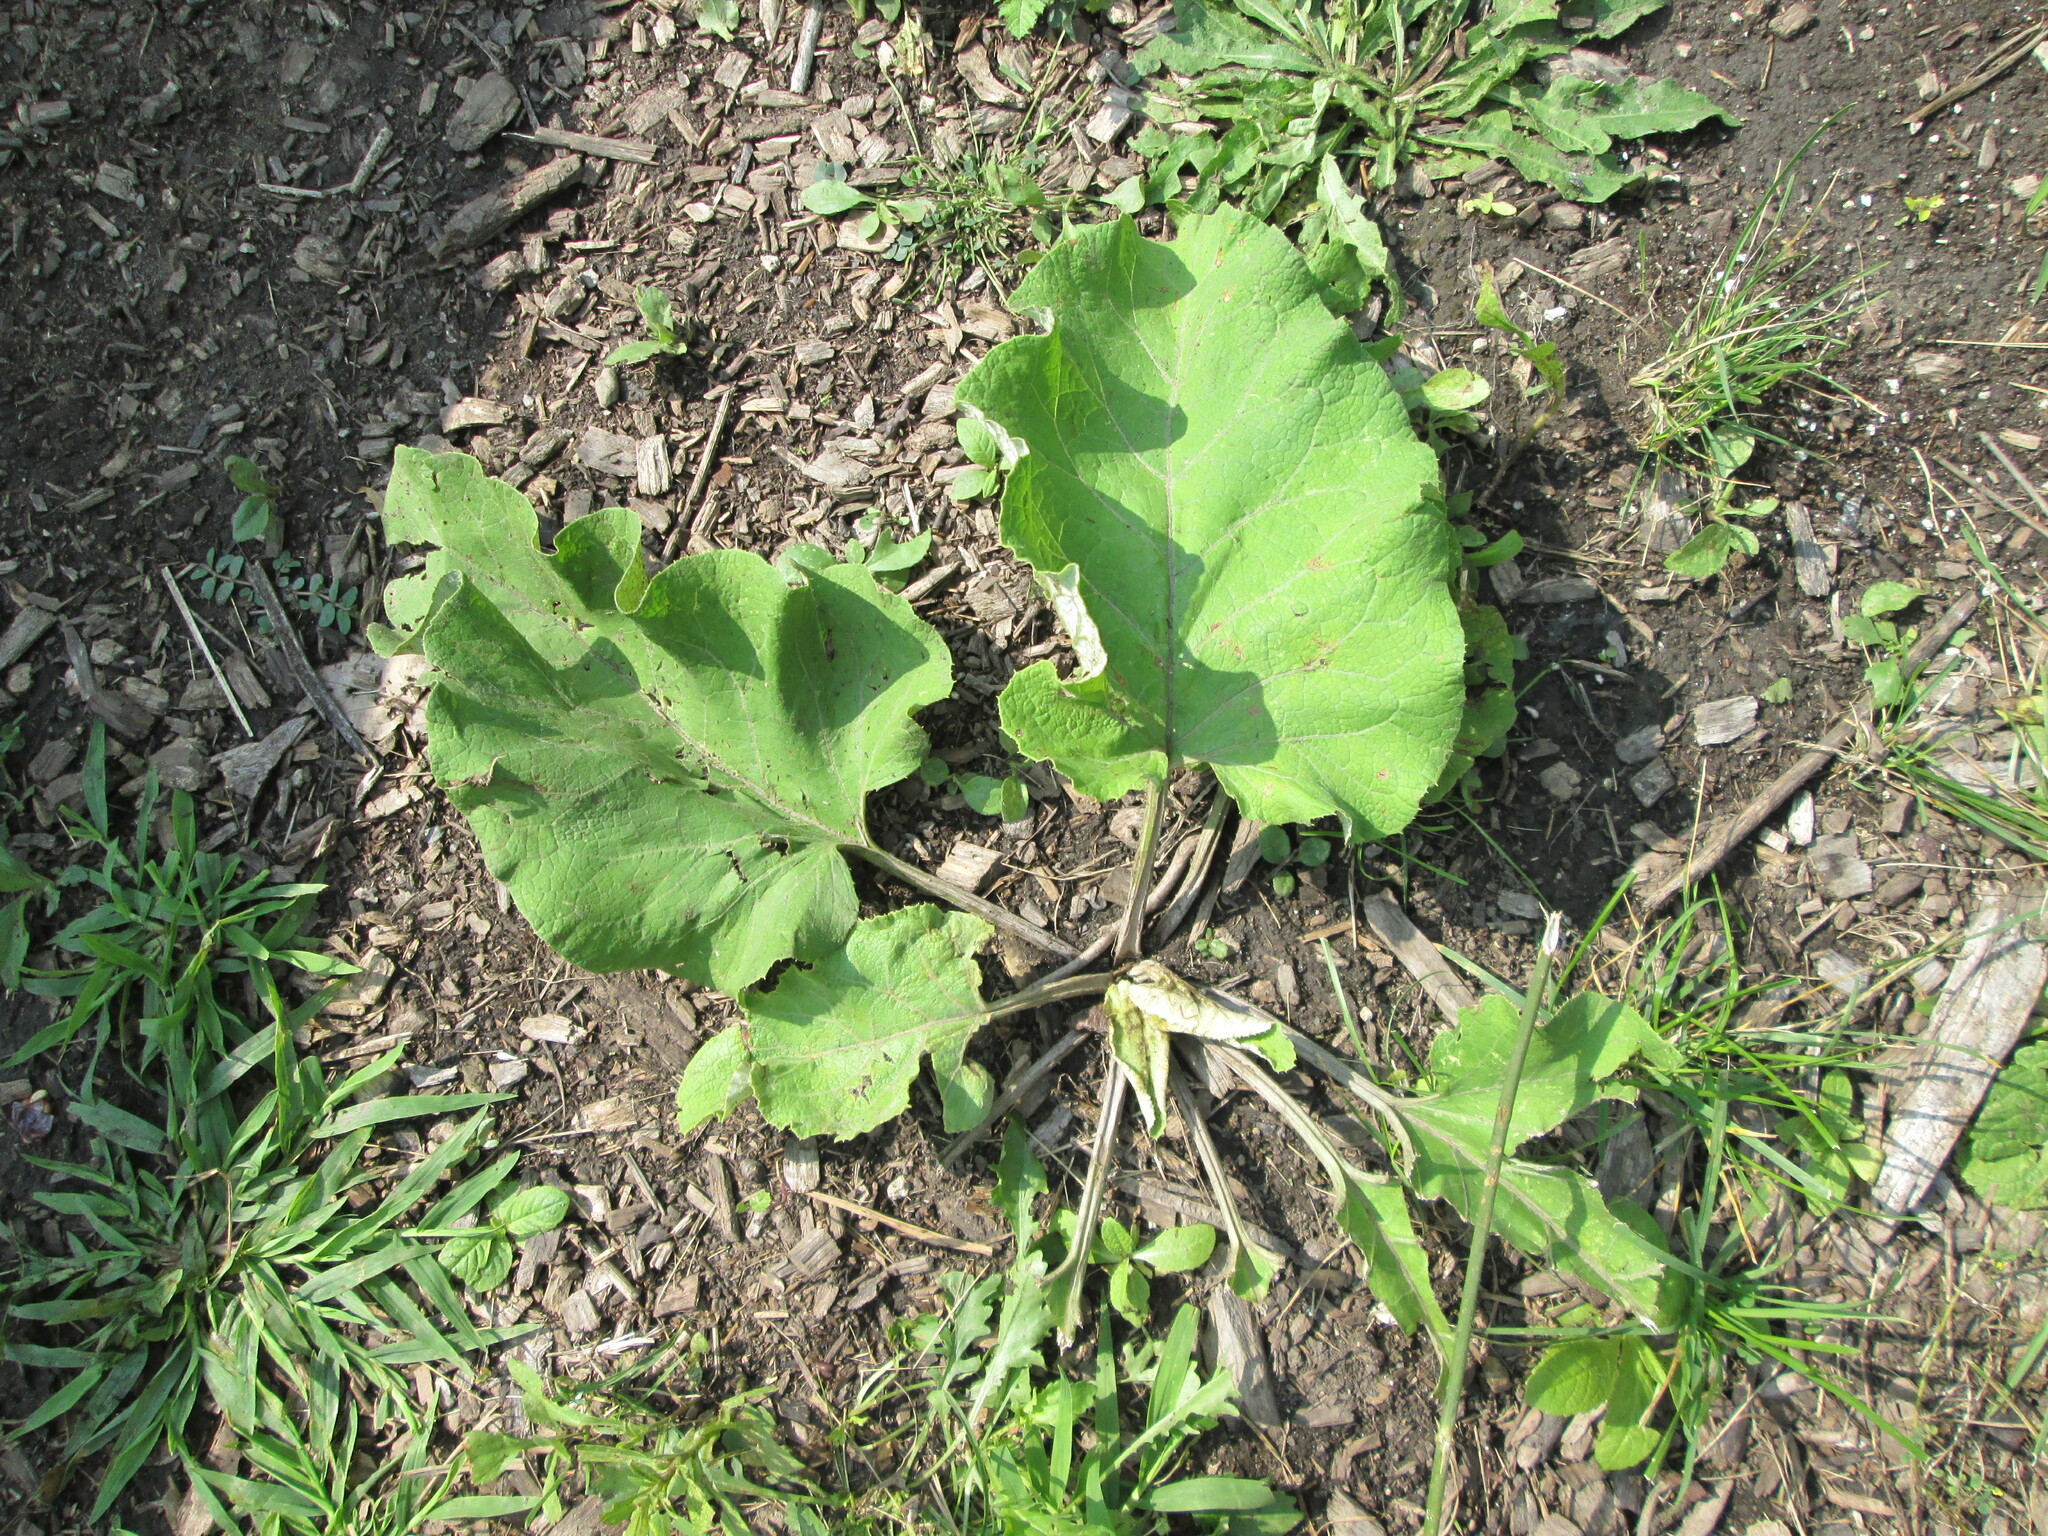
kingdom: Plantae
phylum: Tracheophyta
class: Magnoliopsida
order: Asterales
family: Asteraceae
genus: Arctium
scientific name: Arctium
